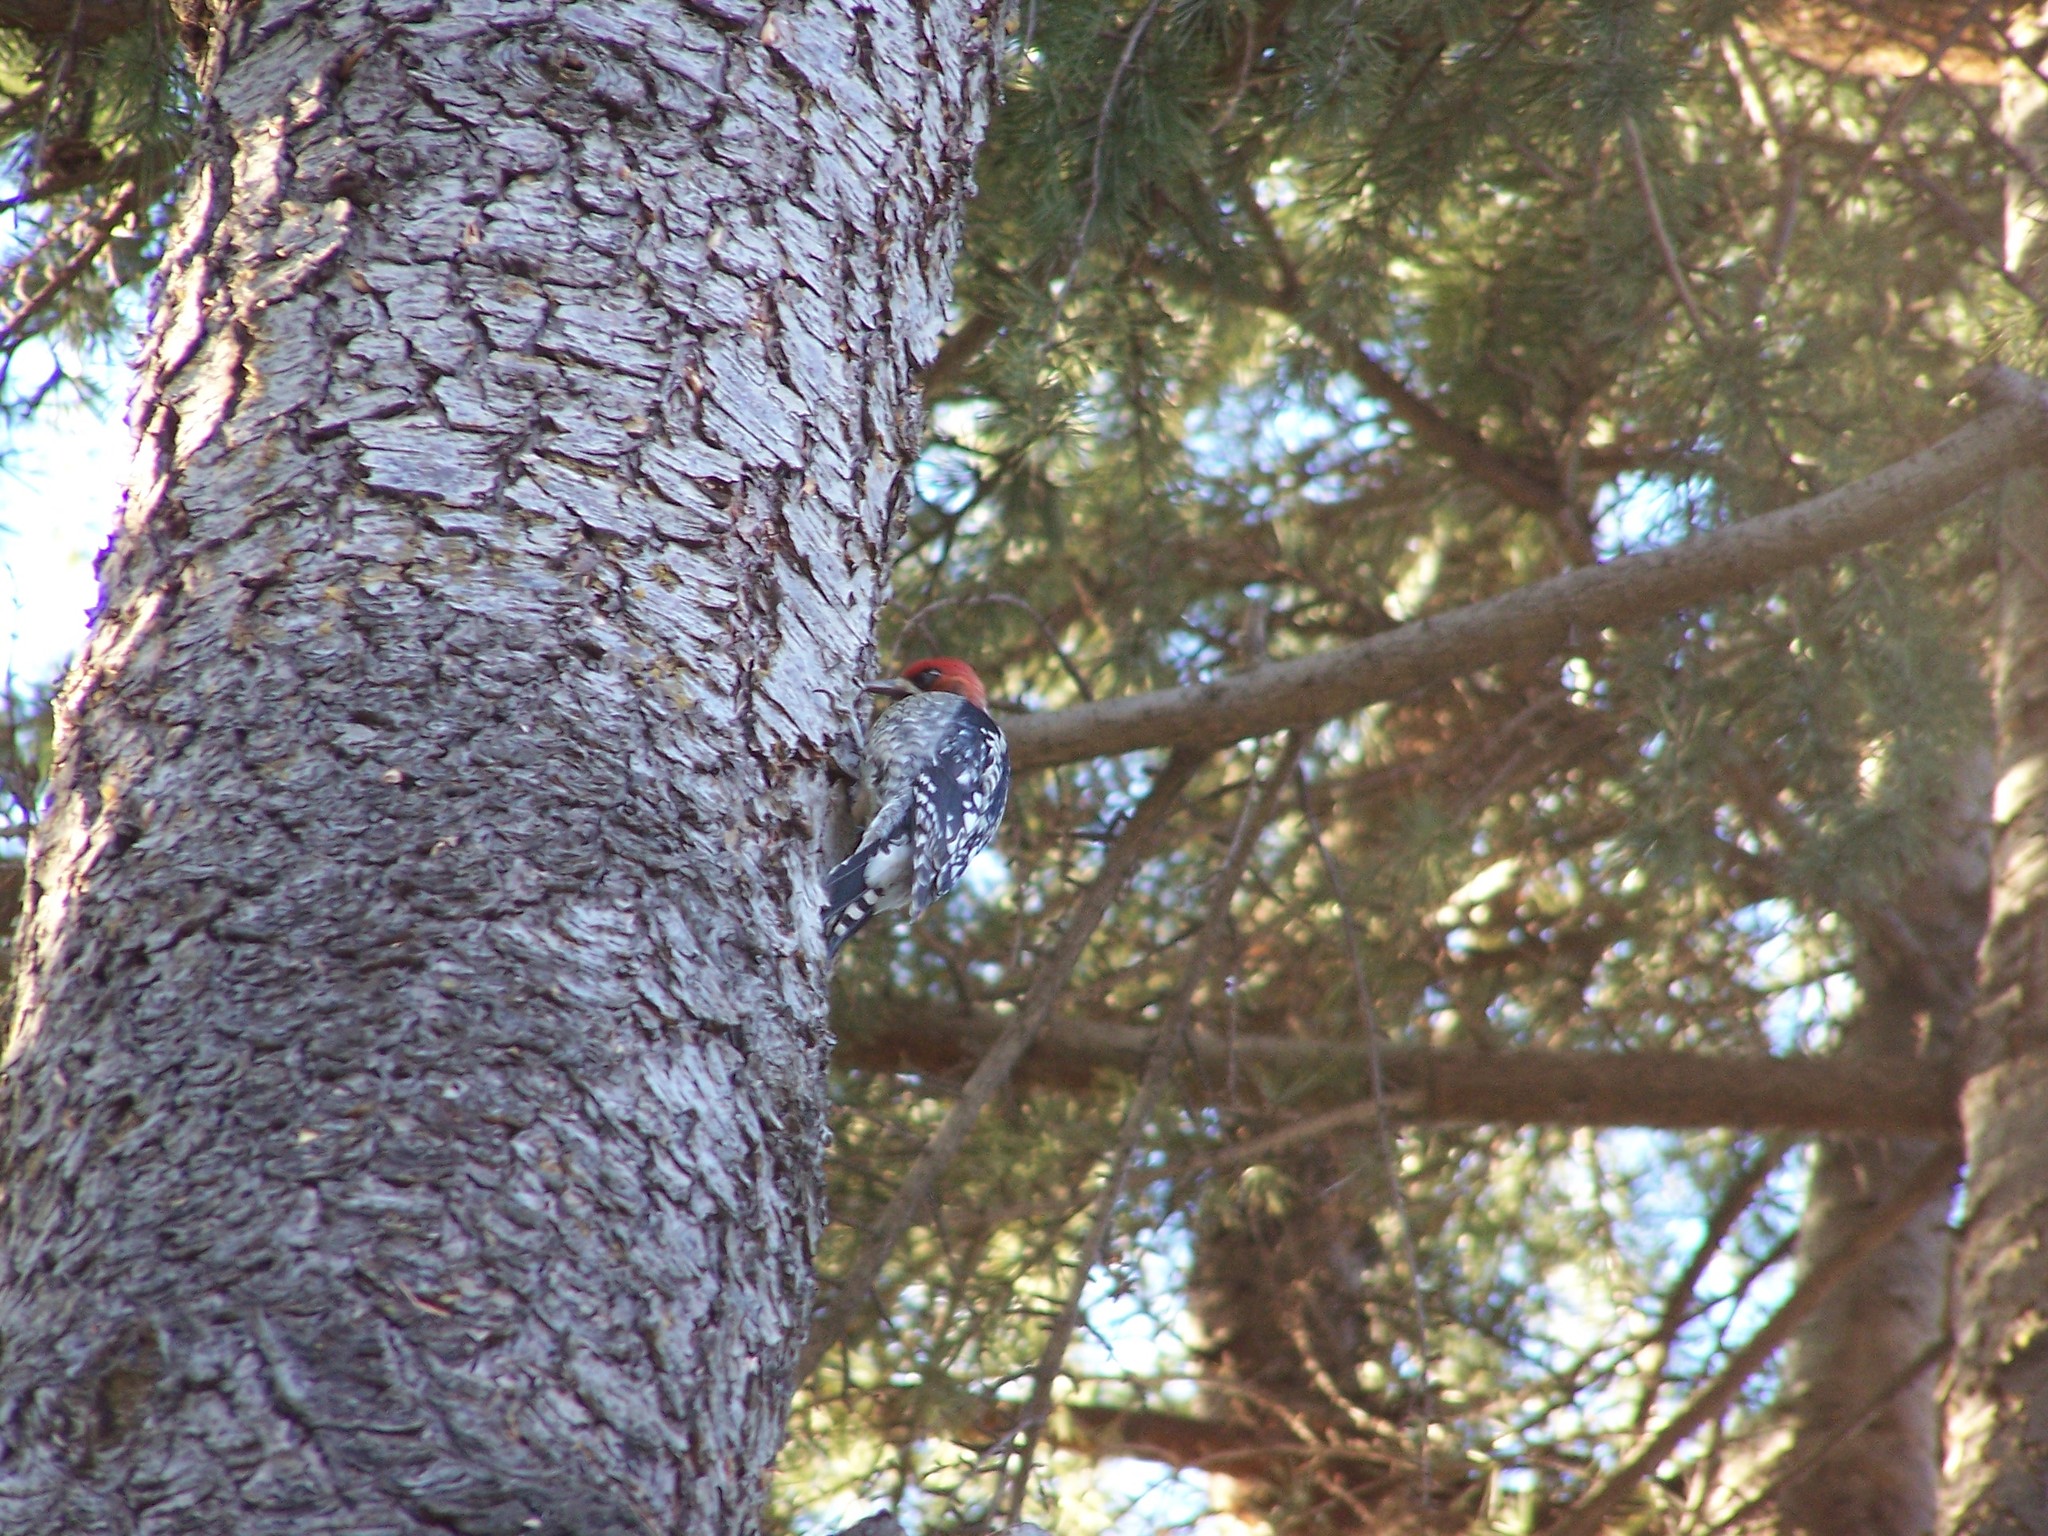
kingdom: Animalia
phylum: Chordata
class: Aves
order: Piciformes
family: Picidae
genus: Sphyrapicus
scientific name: Sphyrapicus ruber
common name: Red-breasted sapsucker
